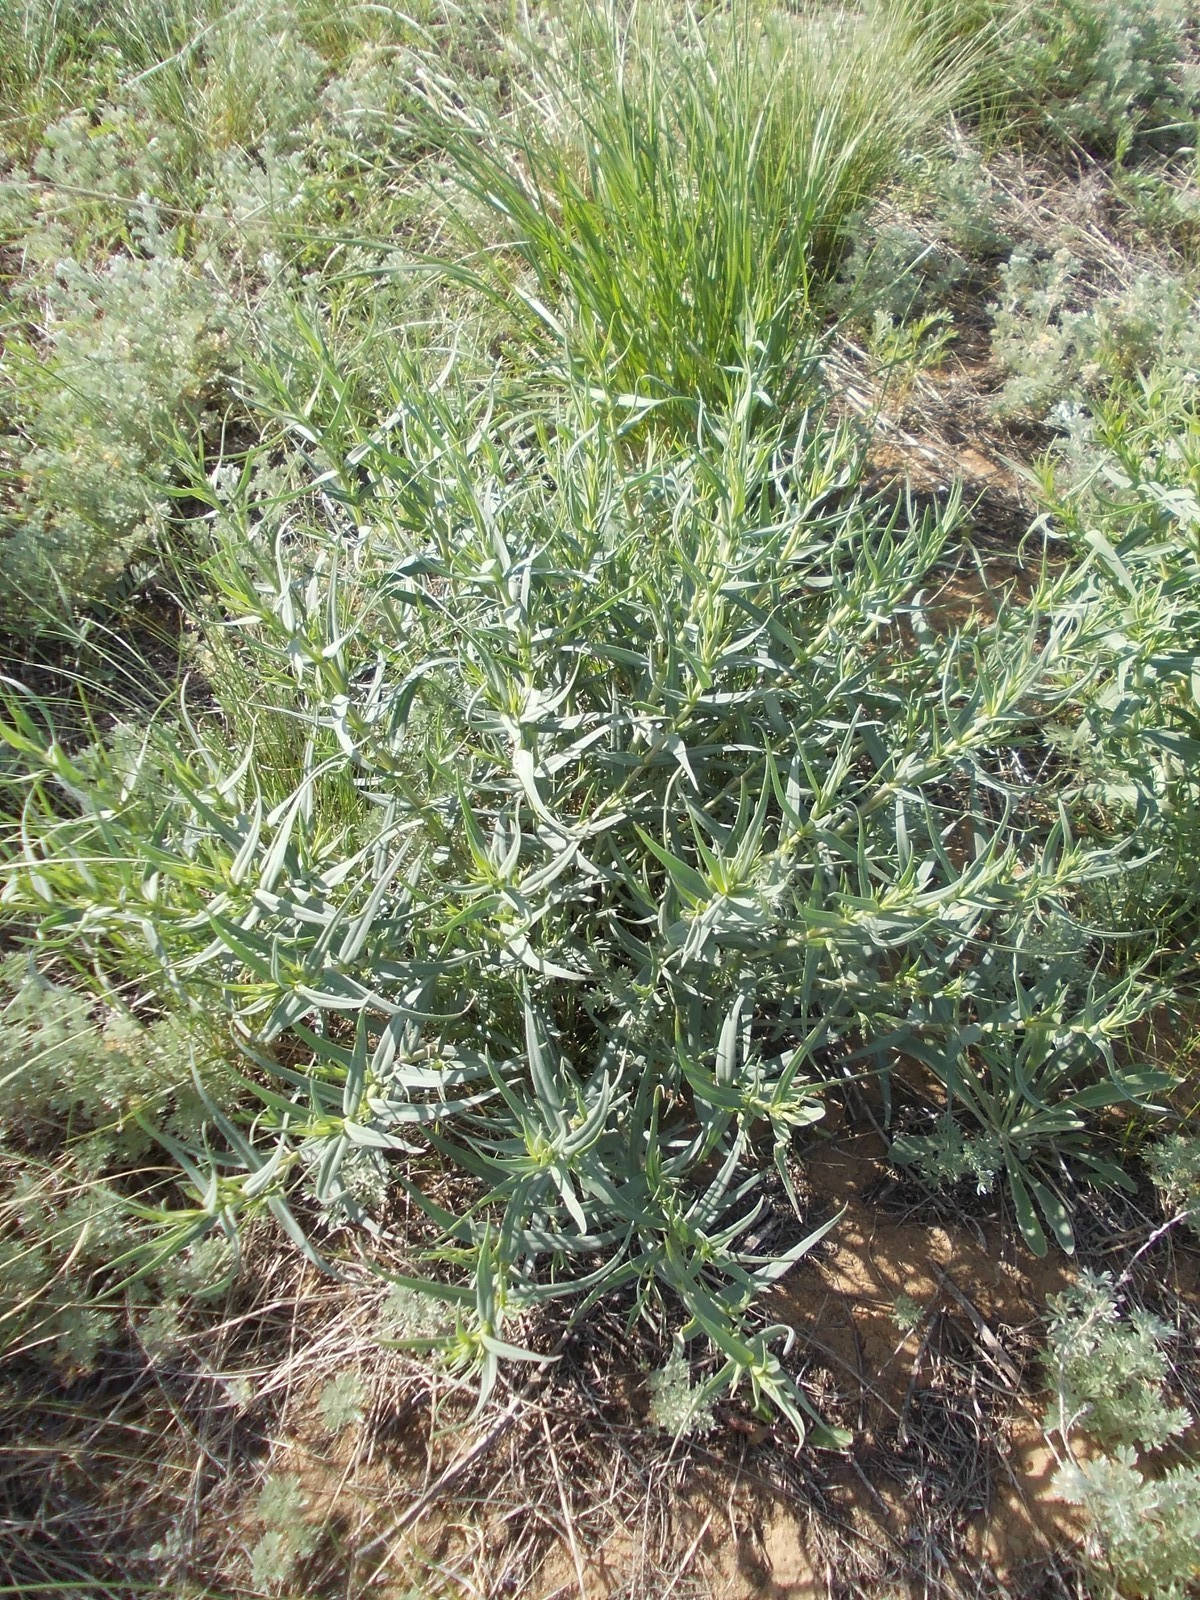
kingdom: Plantae
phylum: Tracheophyta
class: Magnoliopsida
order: Caryophyllales
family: Caryophyllaceae
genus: Gypsophila
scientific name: Gypsophila paniculata
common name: Baby's-breath
